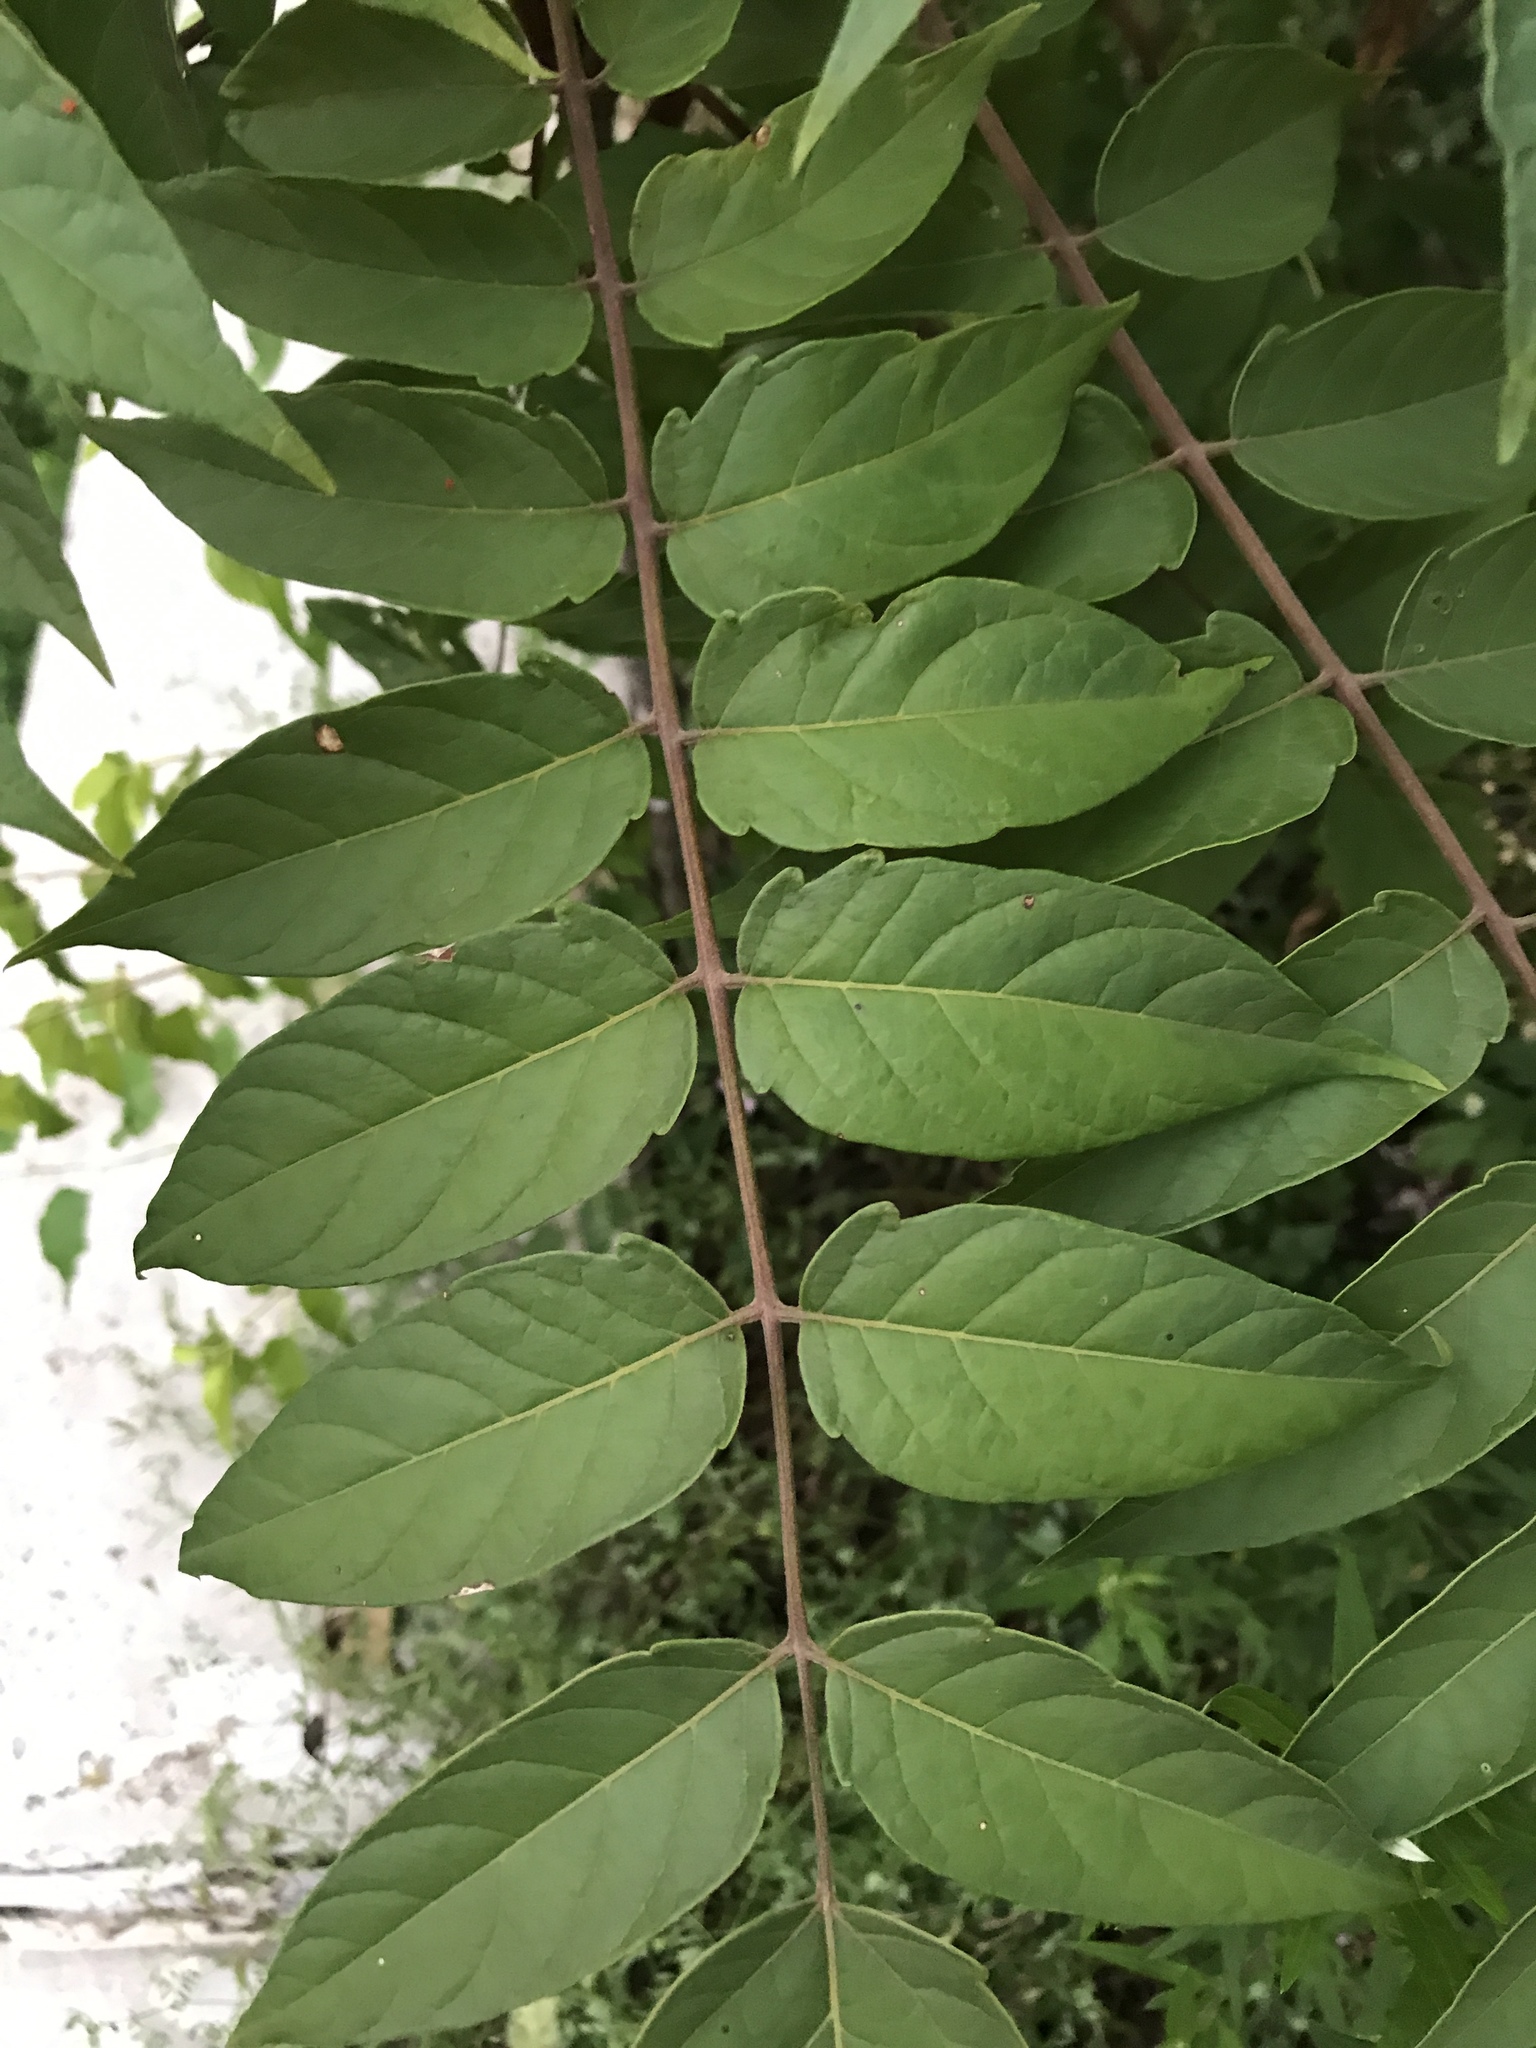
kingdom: Plantae
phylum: Tracheophyta
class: Magnoliopsida
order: Sapindales
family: Simaroubaceae
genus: Ailanthus
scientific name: Ailanthus altissima
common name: Tree-of-heaven
